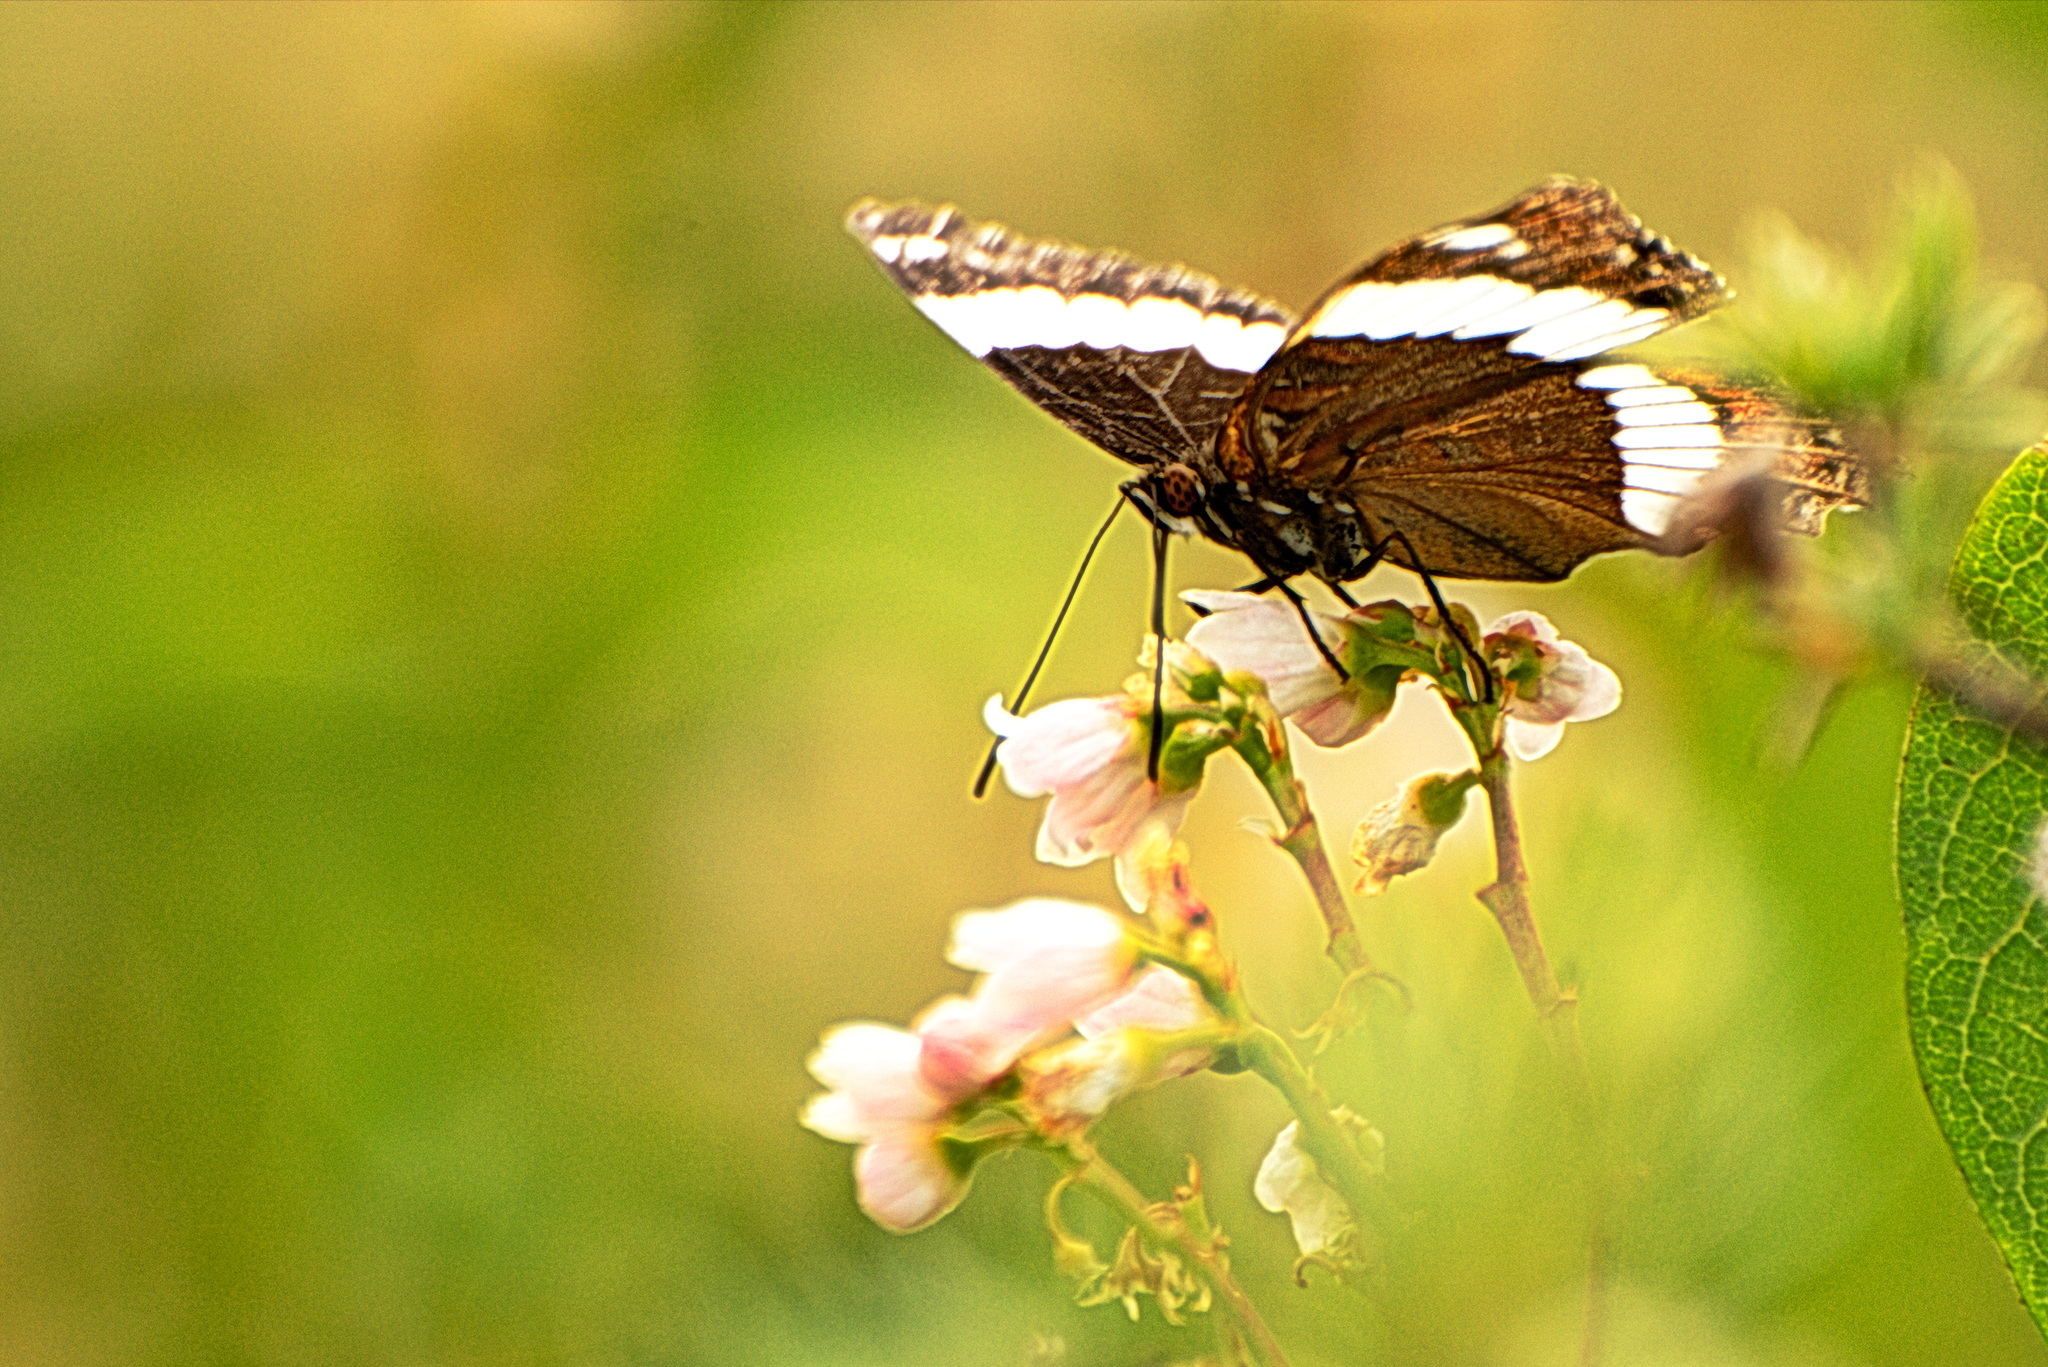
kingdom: Animalia
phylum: Arthropoda
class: Insecta
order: Lepidoptera
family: Nymphalidae
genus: Limenitis
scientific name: Limenitis arthemis
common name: Red-spotted admiral
